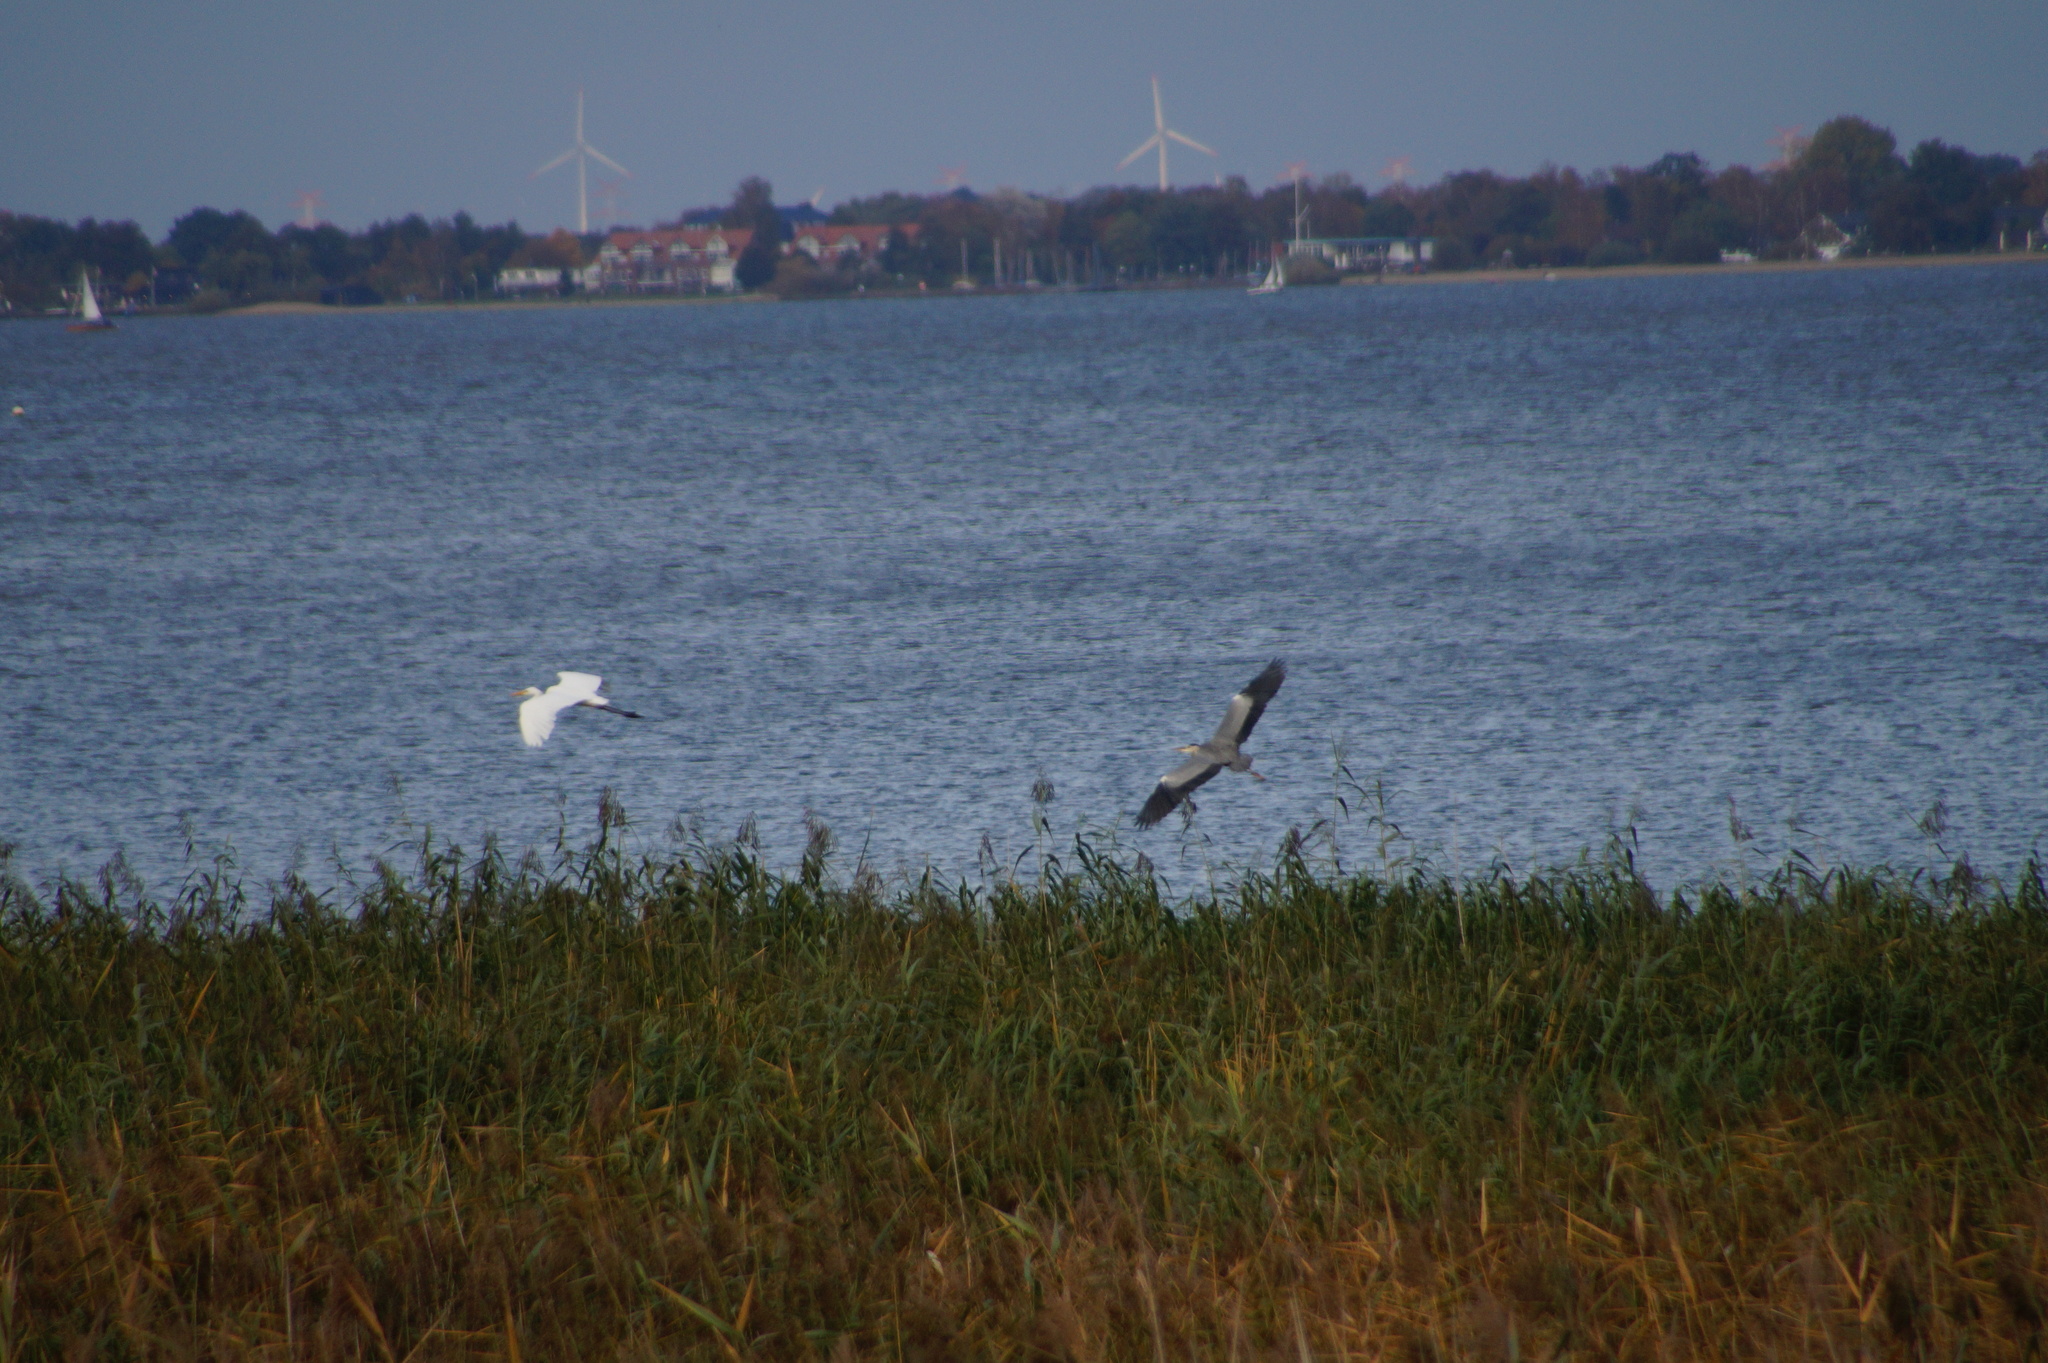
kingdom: Animalia
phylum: Chordata
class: Aves
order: Pelecaniformes
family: Ardeidae
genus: Ardea
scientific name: Ardea alba
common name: Great egret
